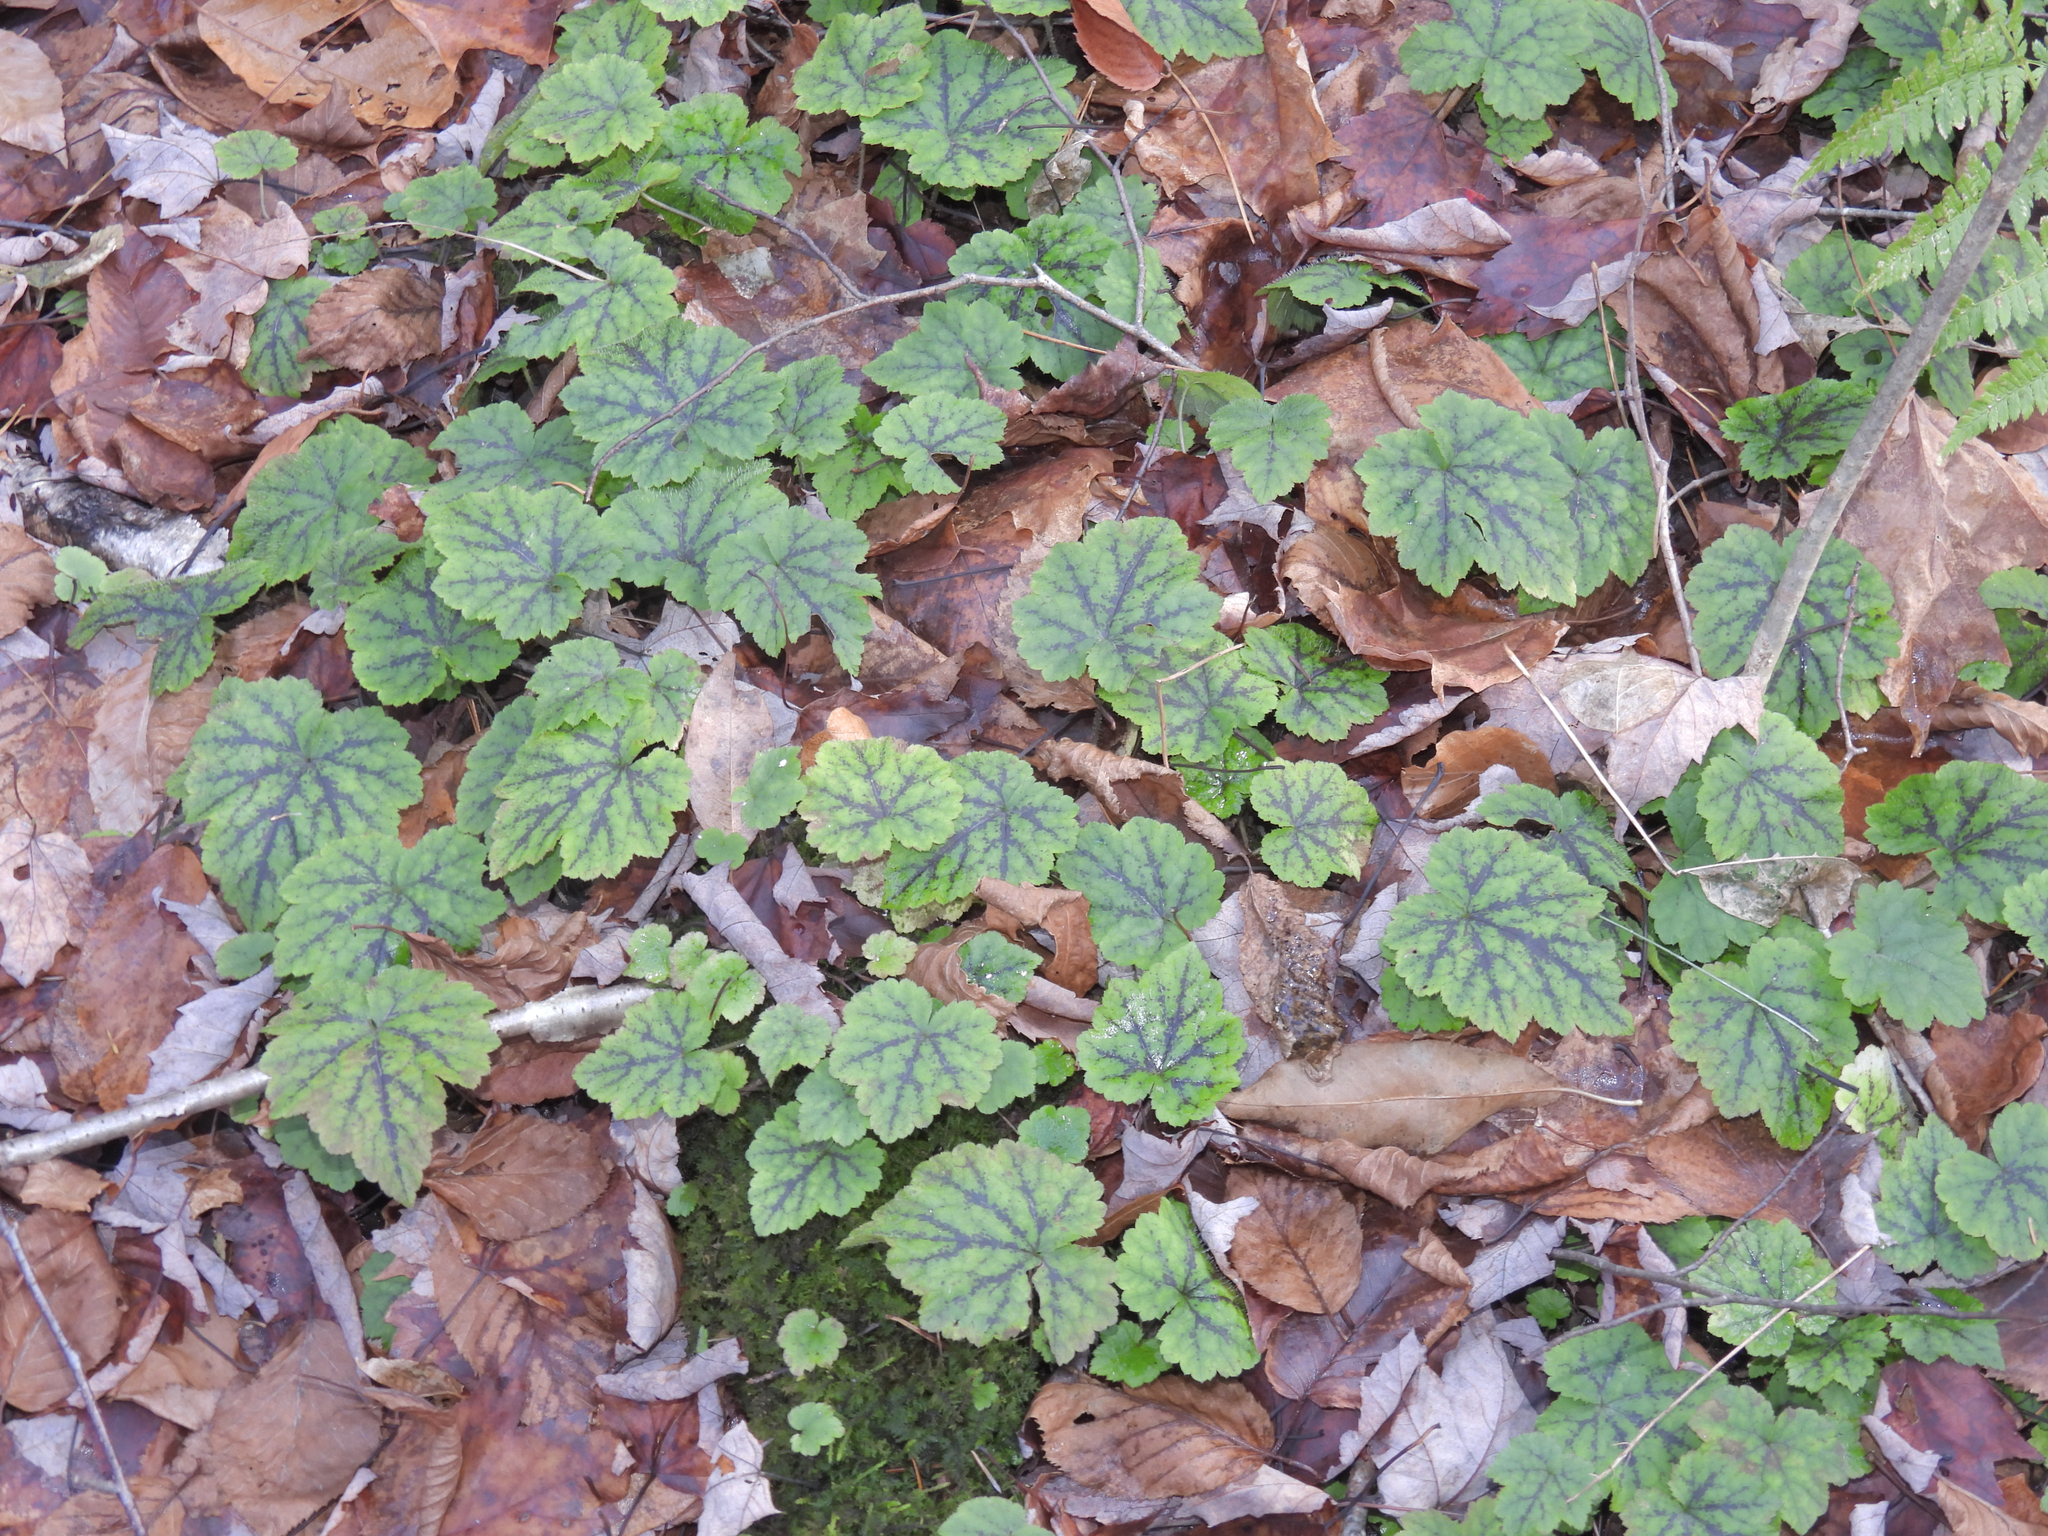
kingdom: Plantae
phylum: Tracheophyta
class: Magnoliopsida
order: Saxifragales
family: Saxifragaceae
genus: Tiarella
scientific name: Tiarella stolonifera
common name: Stoloniferous foamflower
